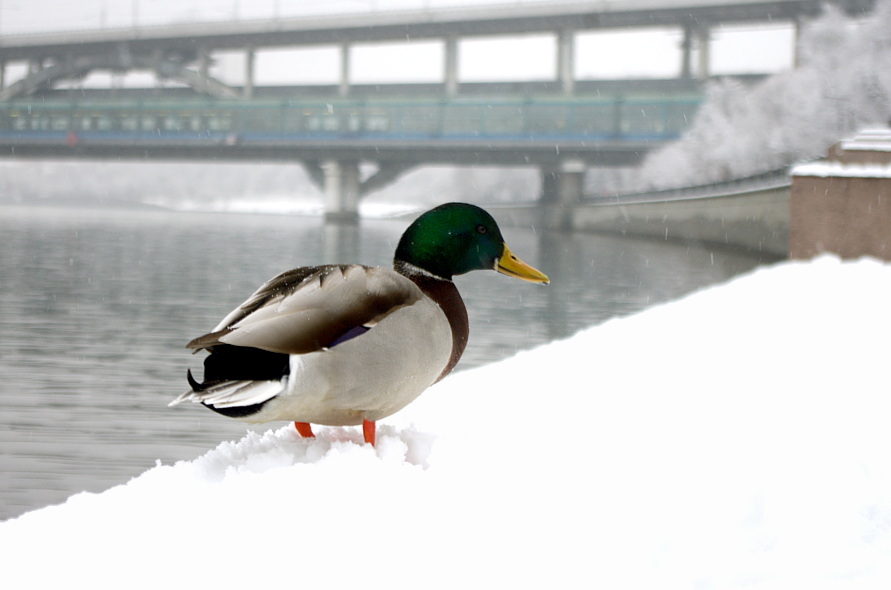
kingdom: Animalia
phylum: Chordata
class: Aves
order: Anseriformes
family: Anatidae
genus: Anas
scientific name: Anas platyrhynchos
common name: Mallard
